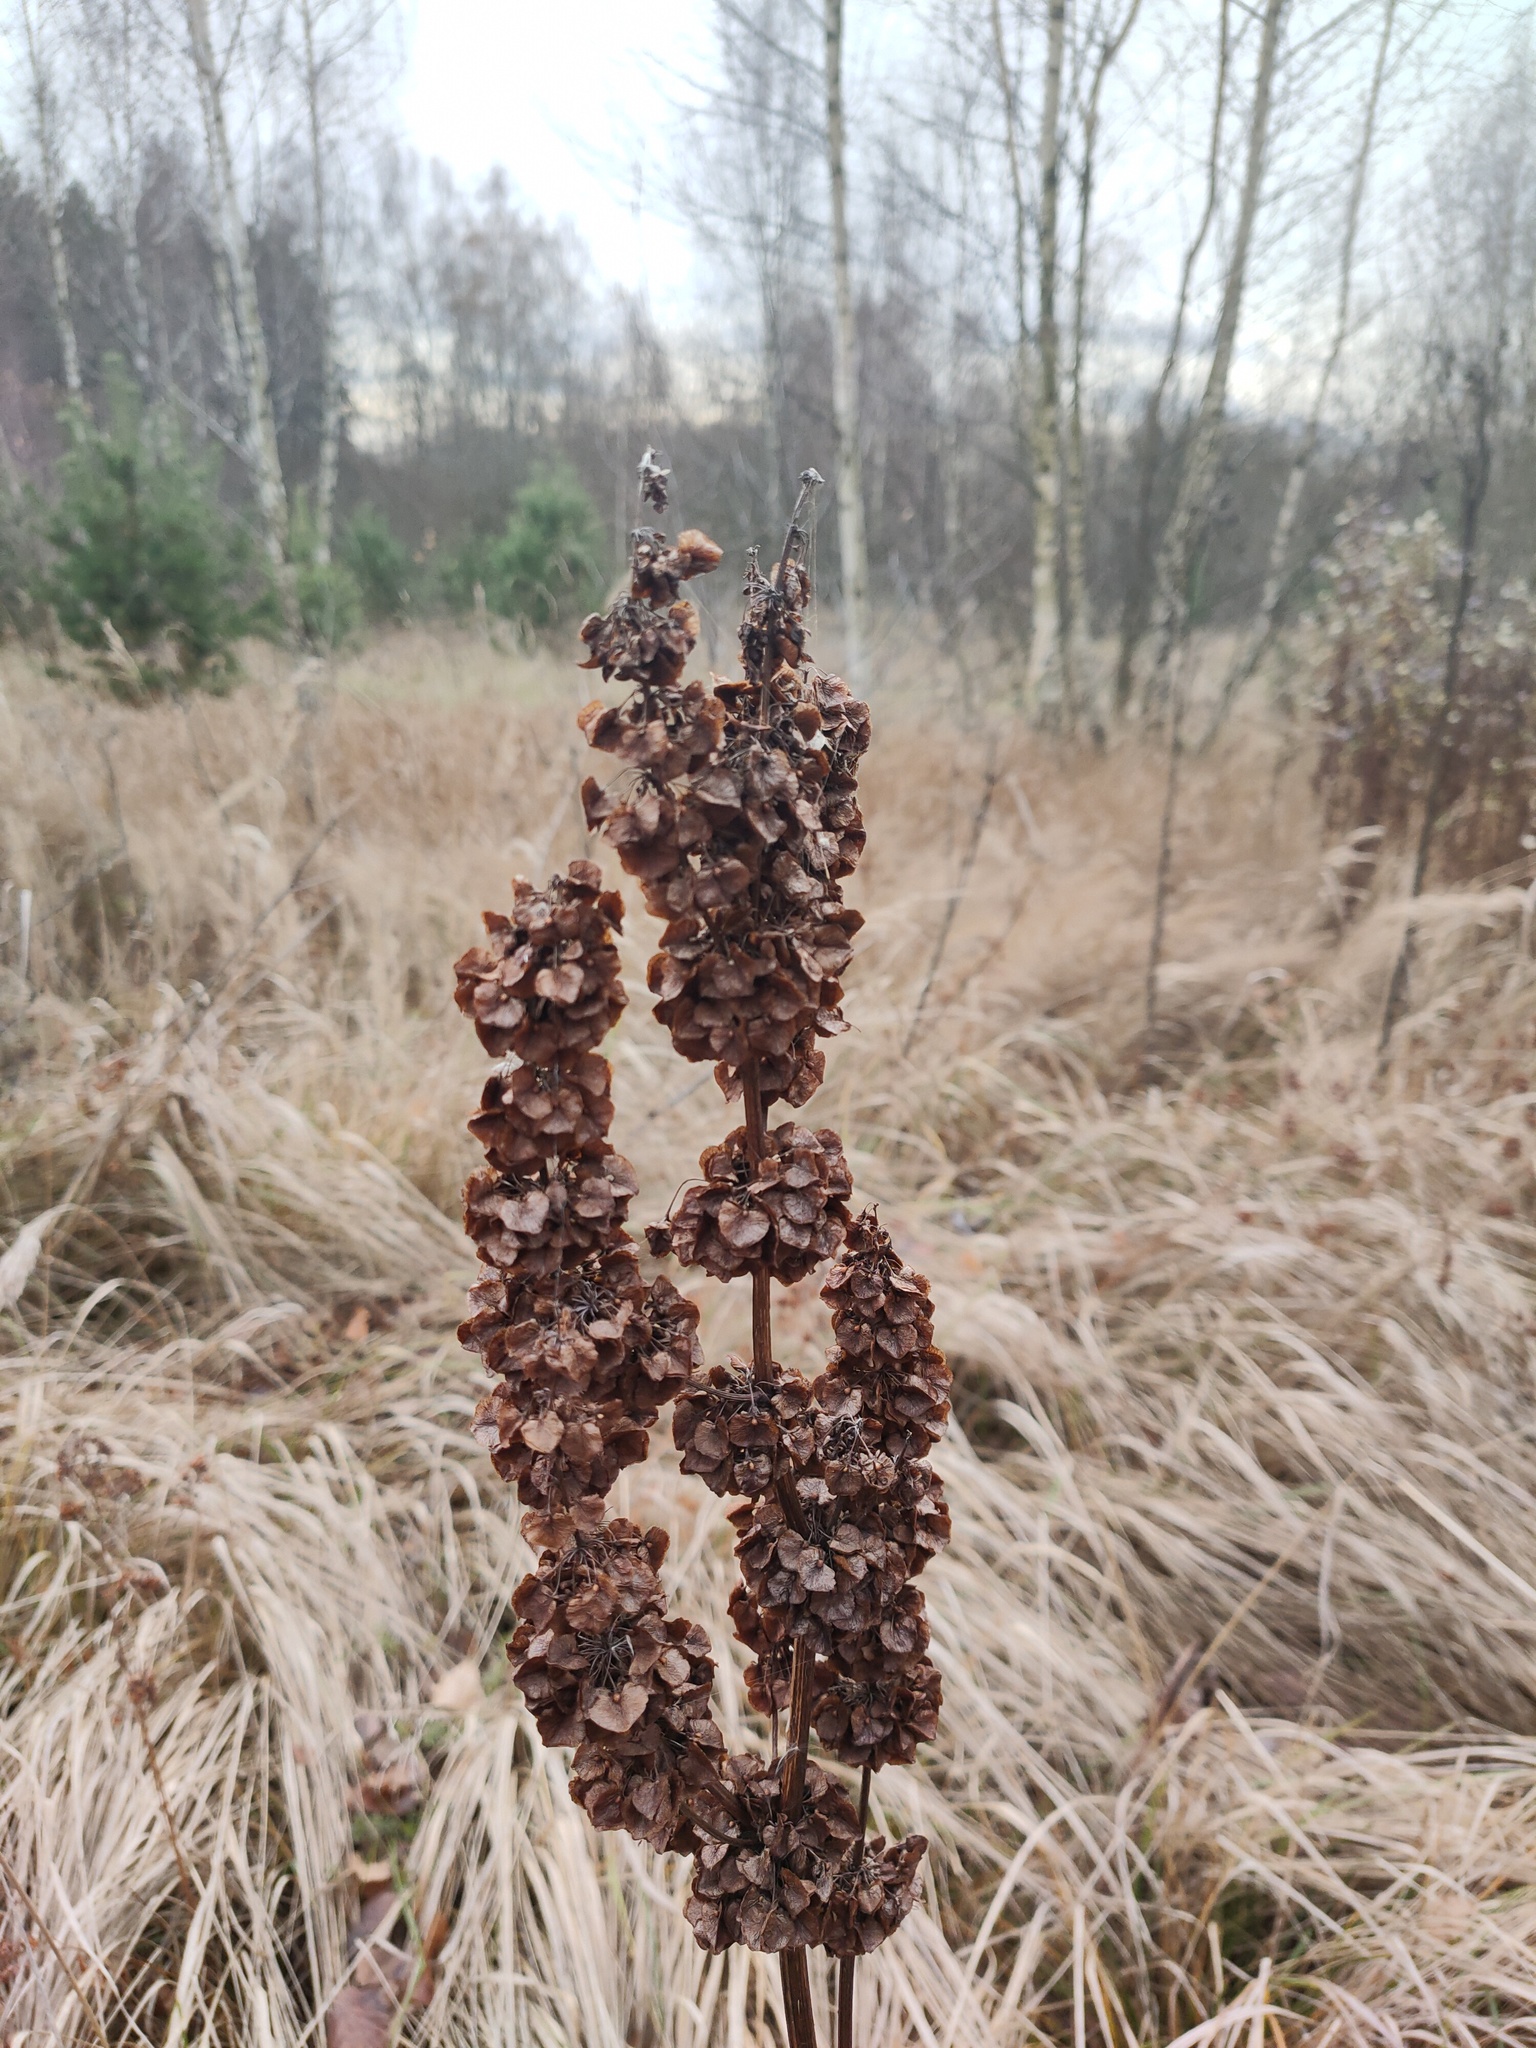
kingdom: Plantae
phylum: Tracheophyta
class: Magnoliopsida
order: Caryophyllales
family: Polygonaceae
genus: Rumex
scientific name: Rumex confertus
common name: Russian dock
